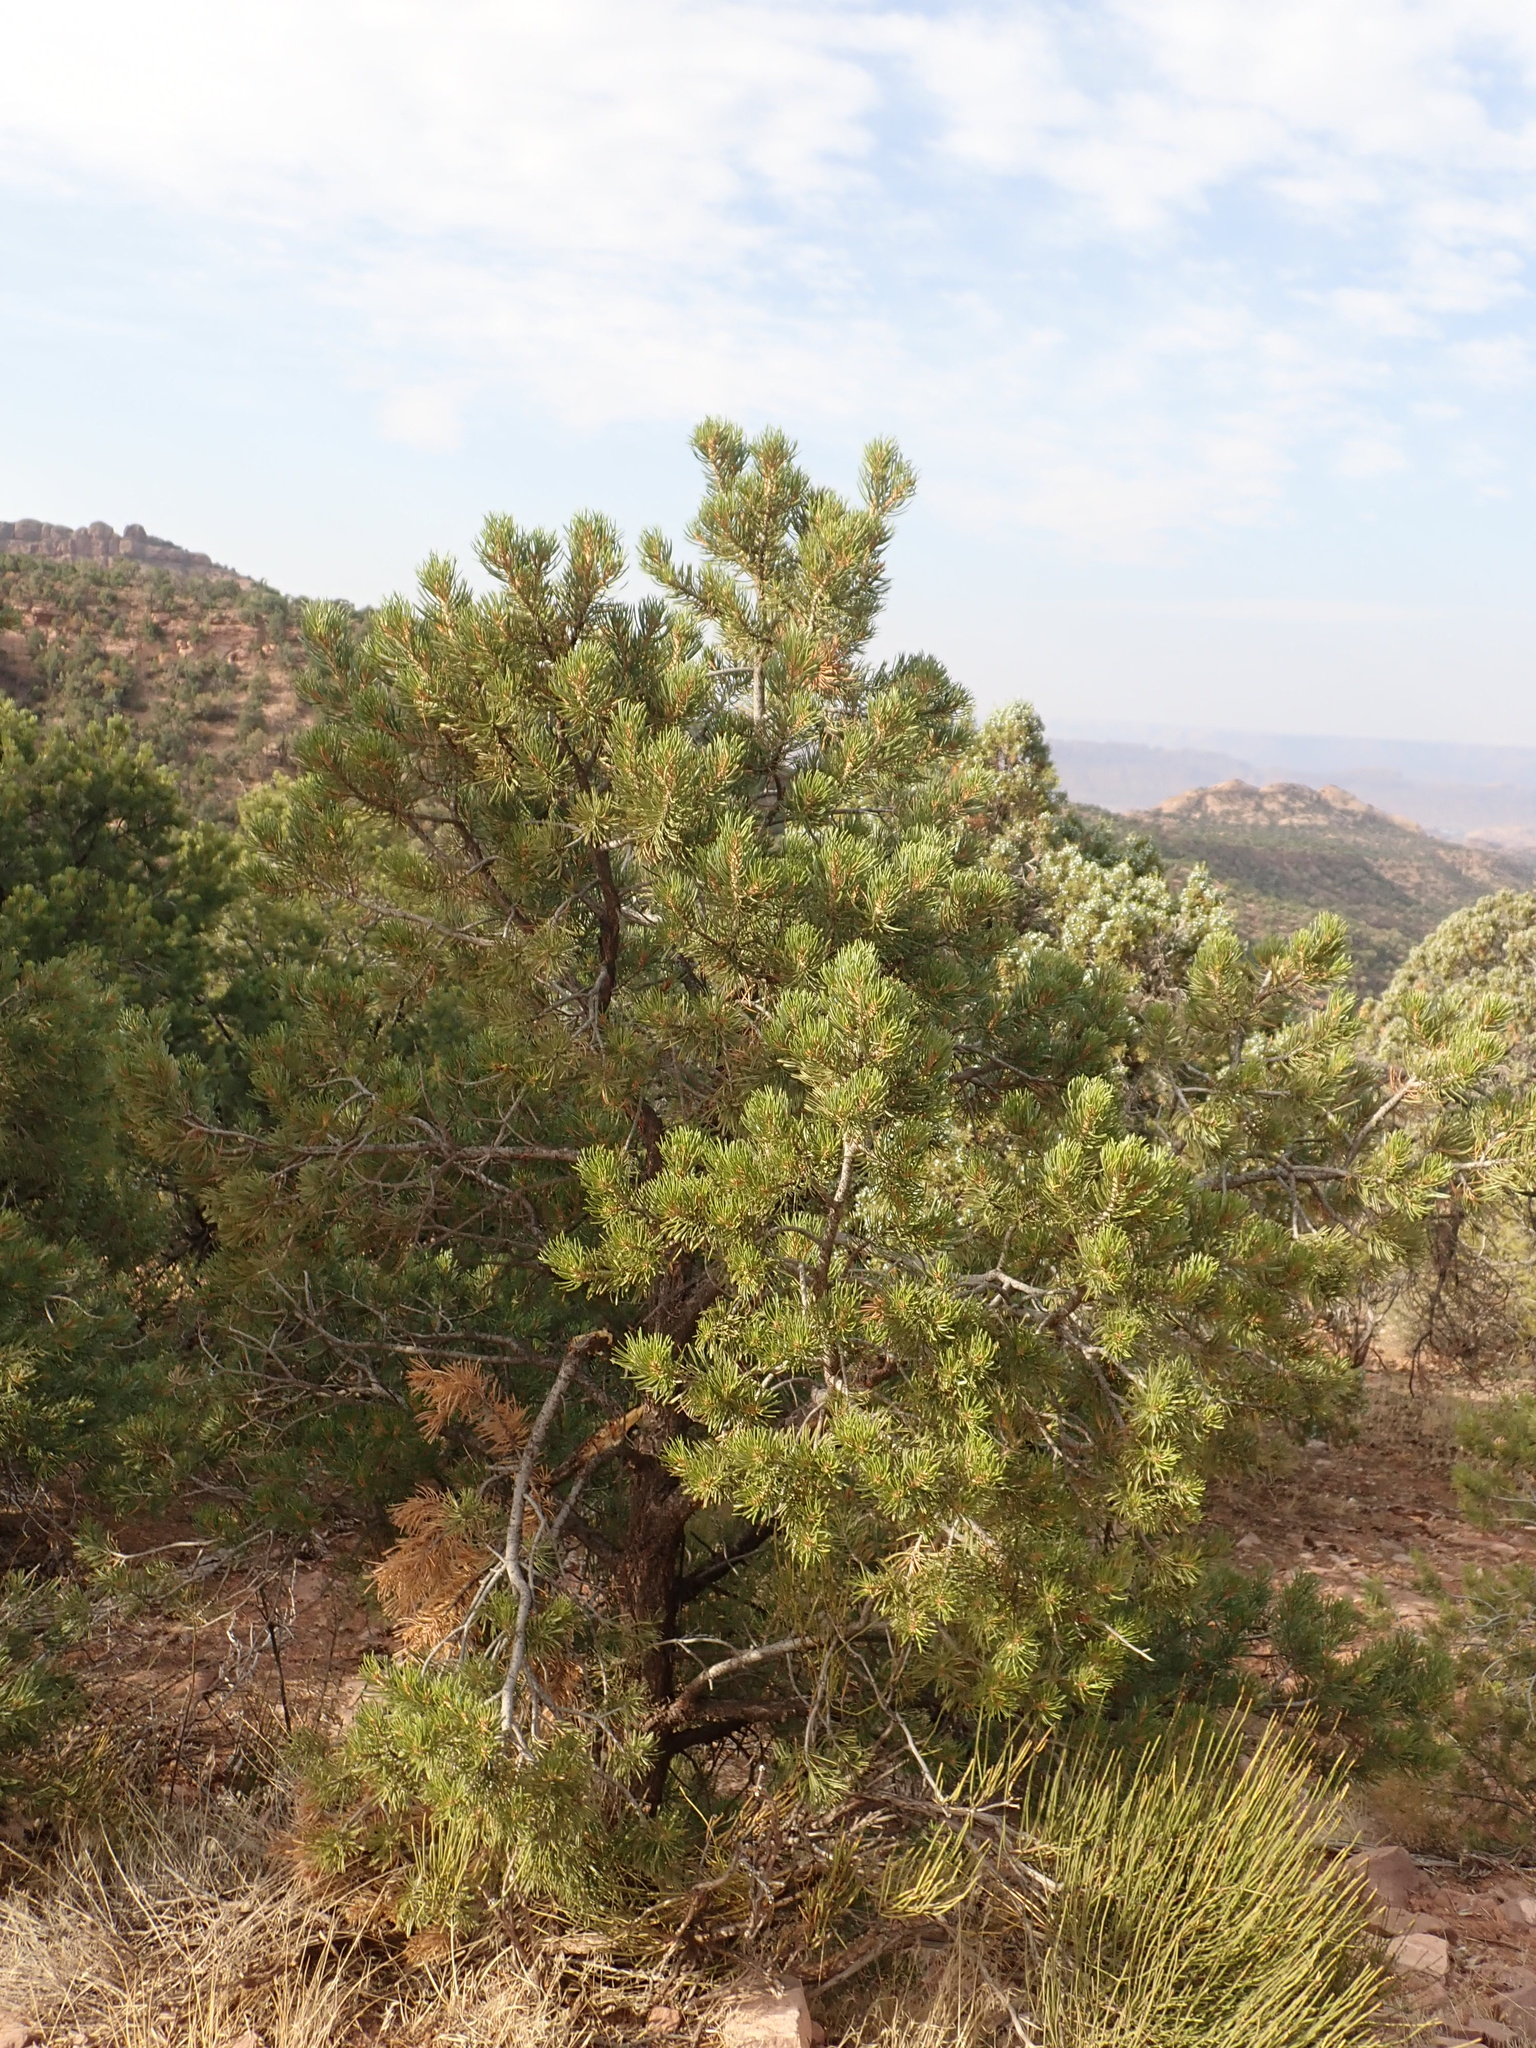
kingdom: Plantae
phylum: Tracheophyta
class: Pinopsida
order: Pinales
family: Pinaceae
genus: Pinus
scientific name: Pinus edulis
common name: Colorado pinyon
